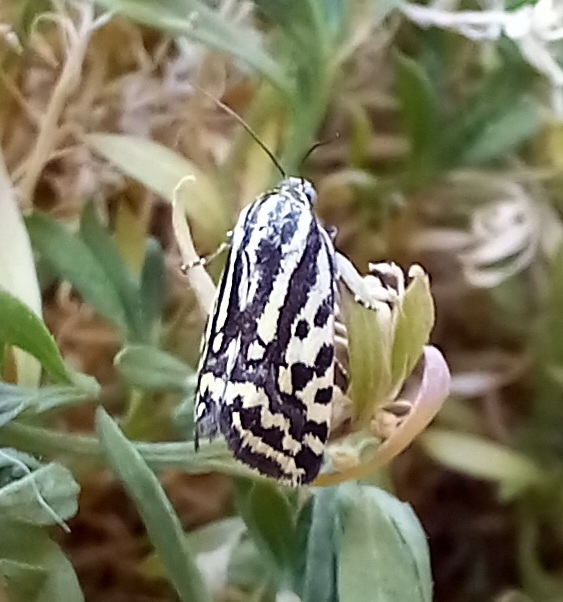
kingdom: Animalia
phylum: Arthropoda
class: Insecta
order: Lepidoptera
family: Noctuidae
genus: Acontia
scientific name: Acontia trabealis
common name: Spotted sulphur
